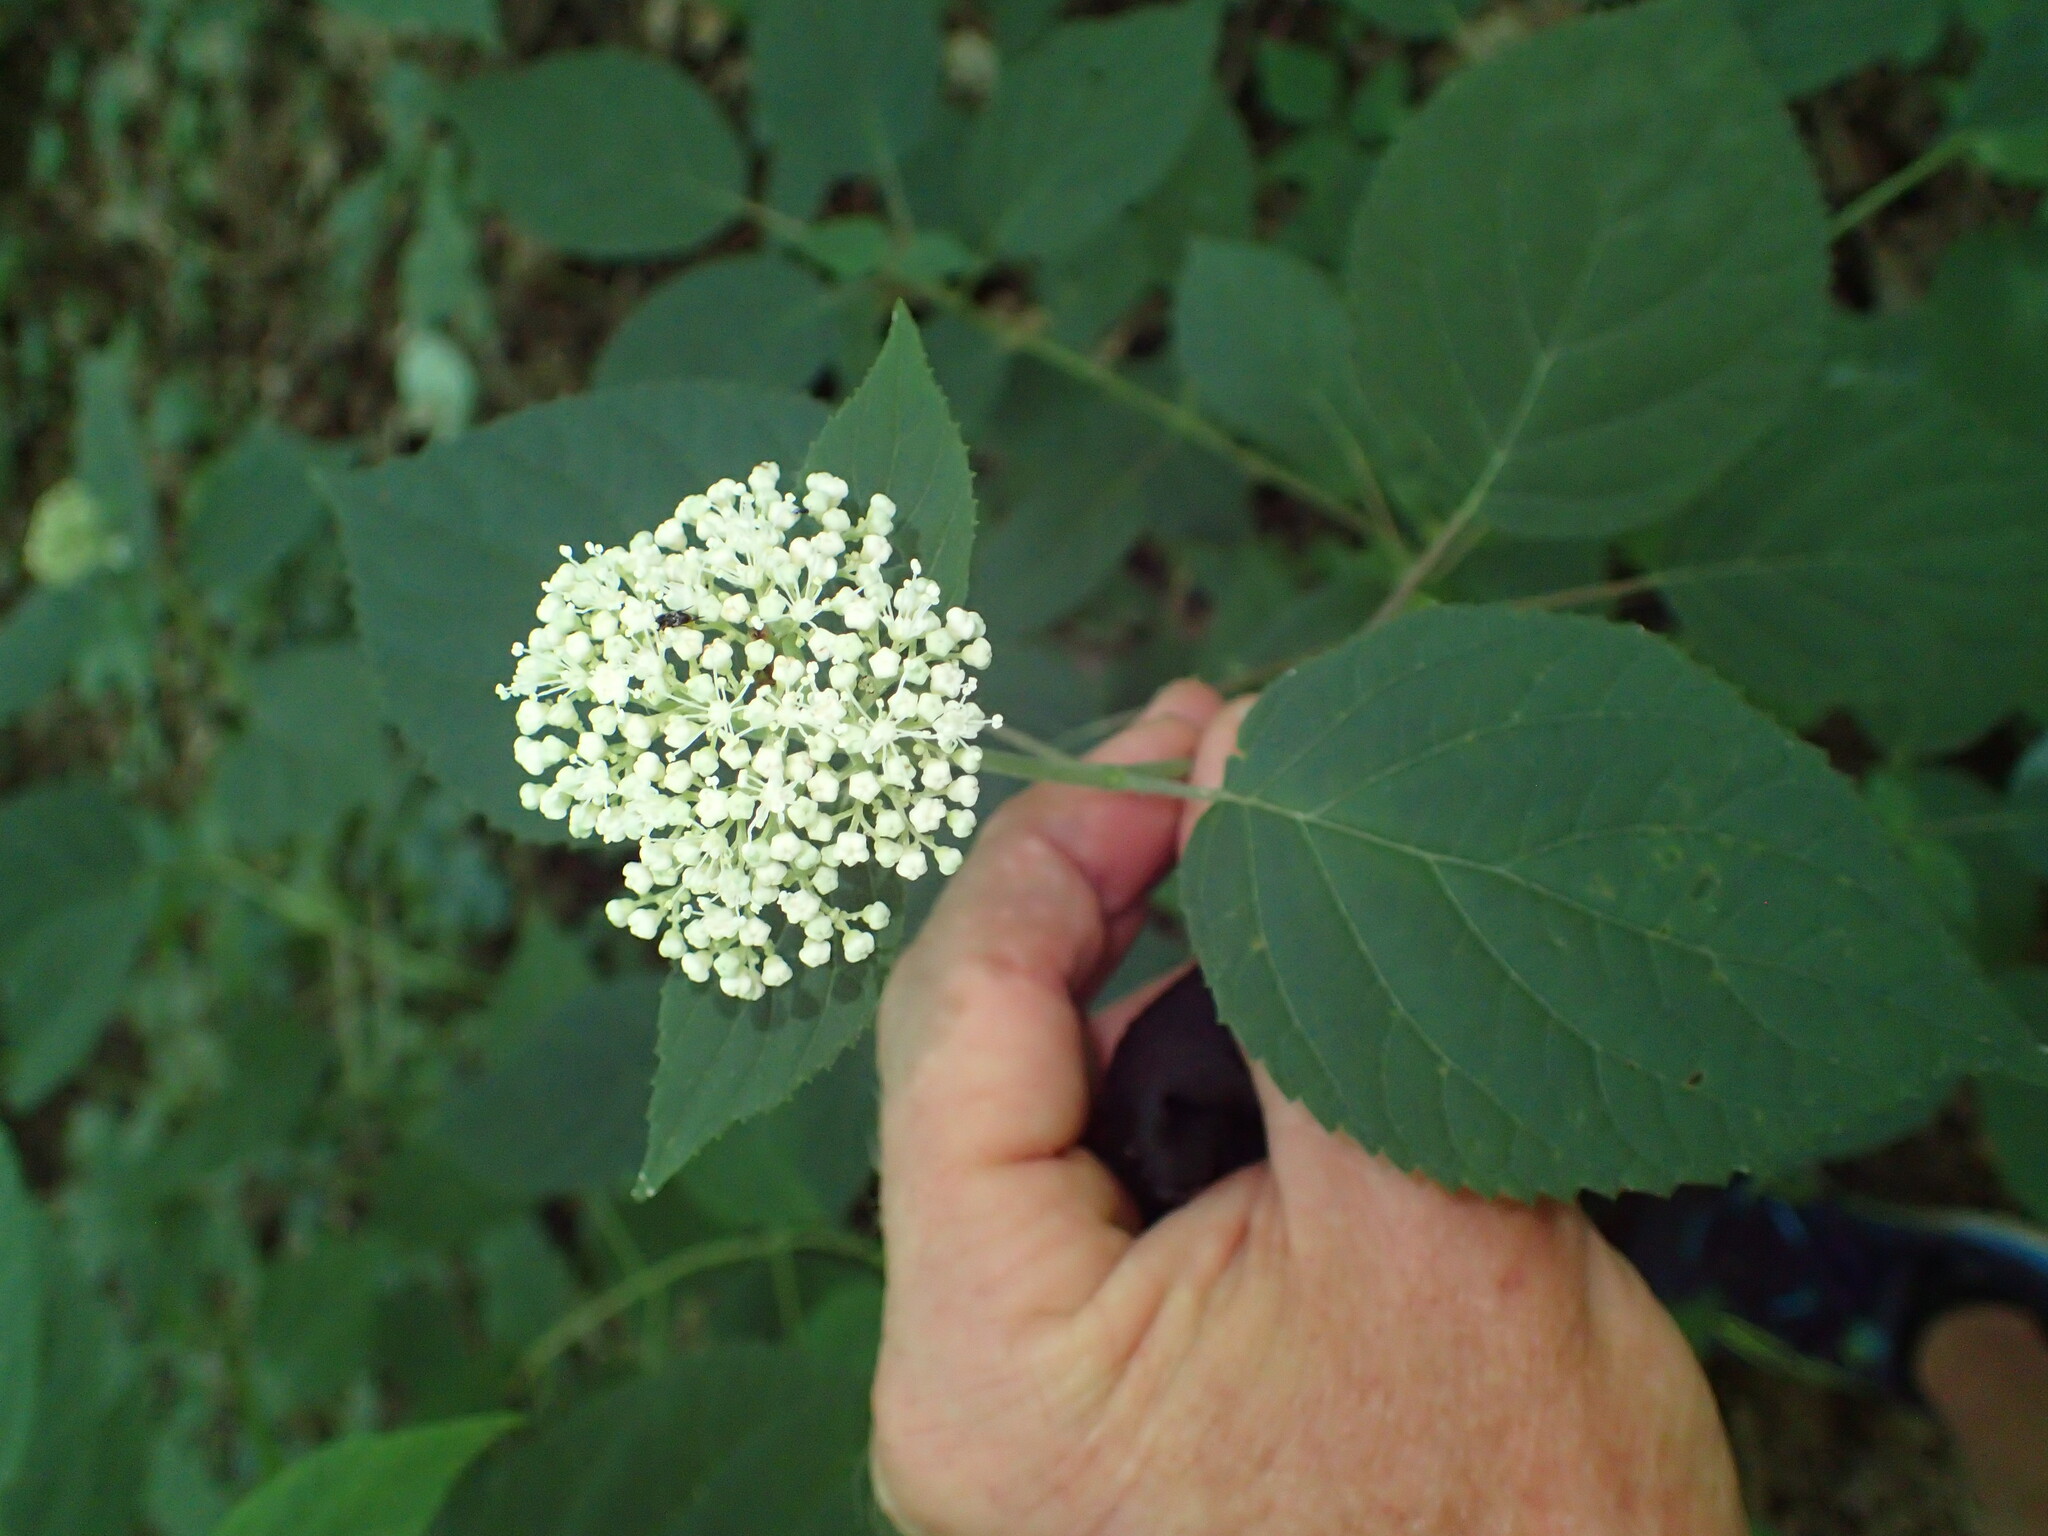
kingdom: Plantae
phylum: Tracheophyta
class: Magnoliopsida
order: Cornales
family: Hydrangeaceae
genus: Hydrangea
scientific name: Hydrangea arborescens
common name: Sevenbark
